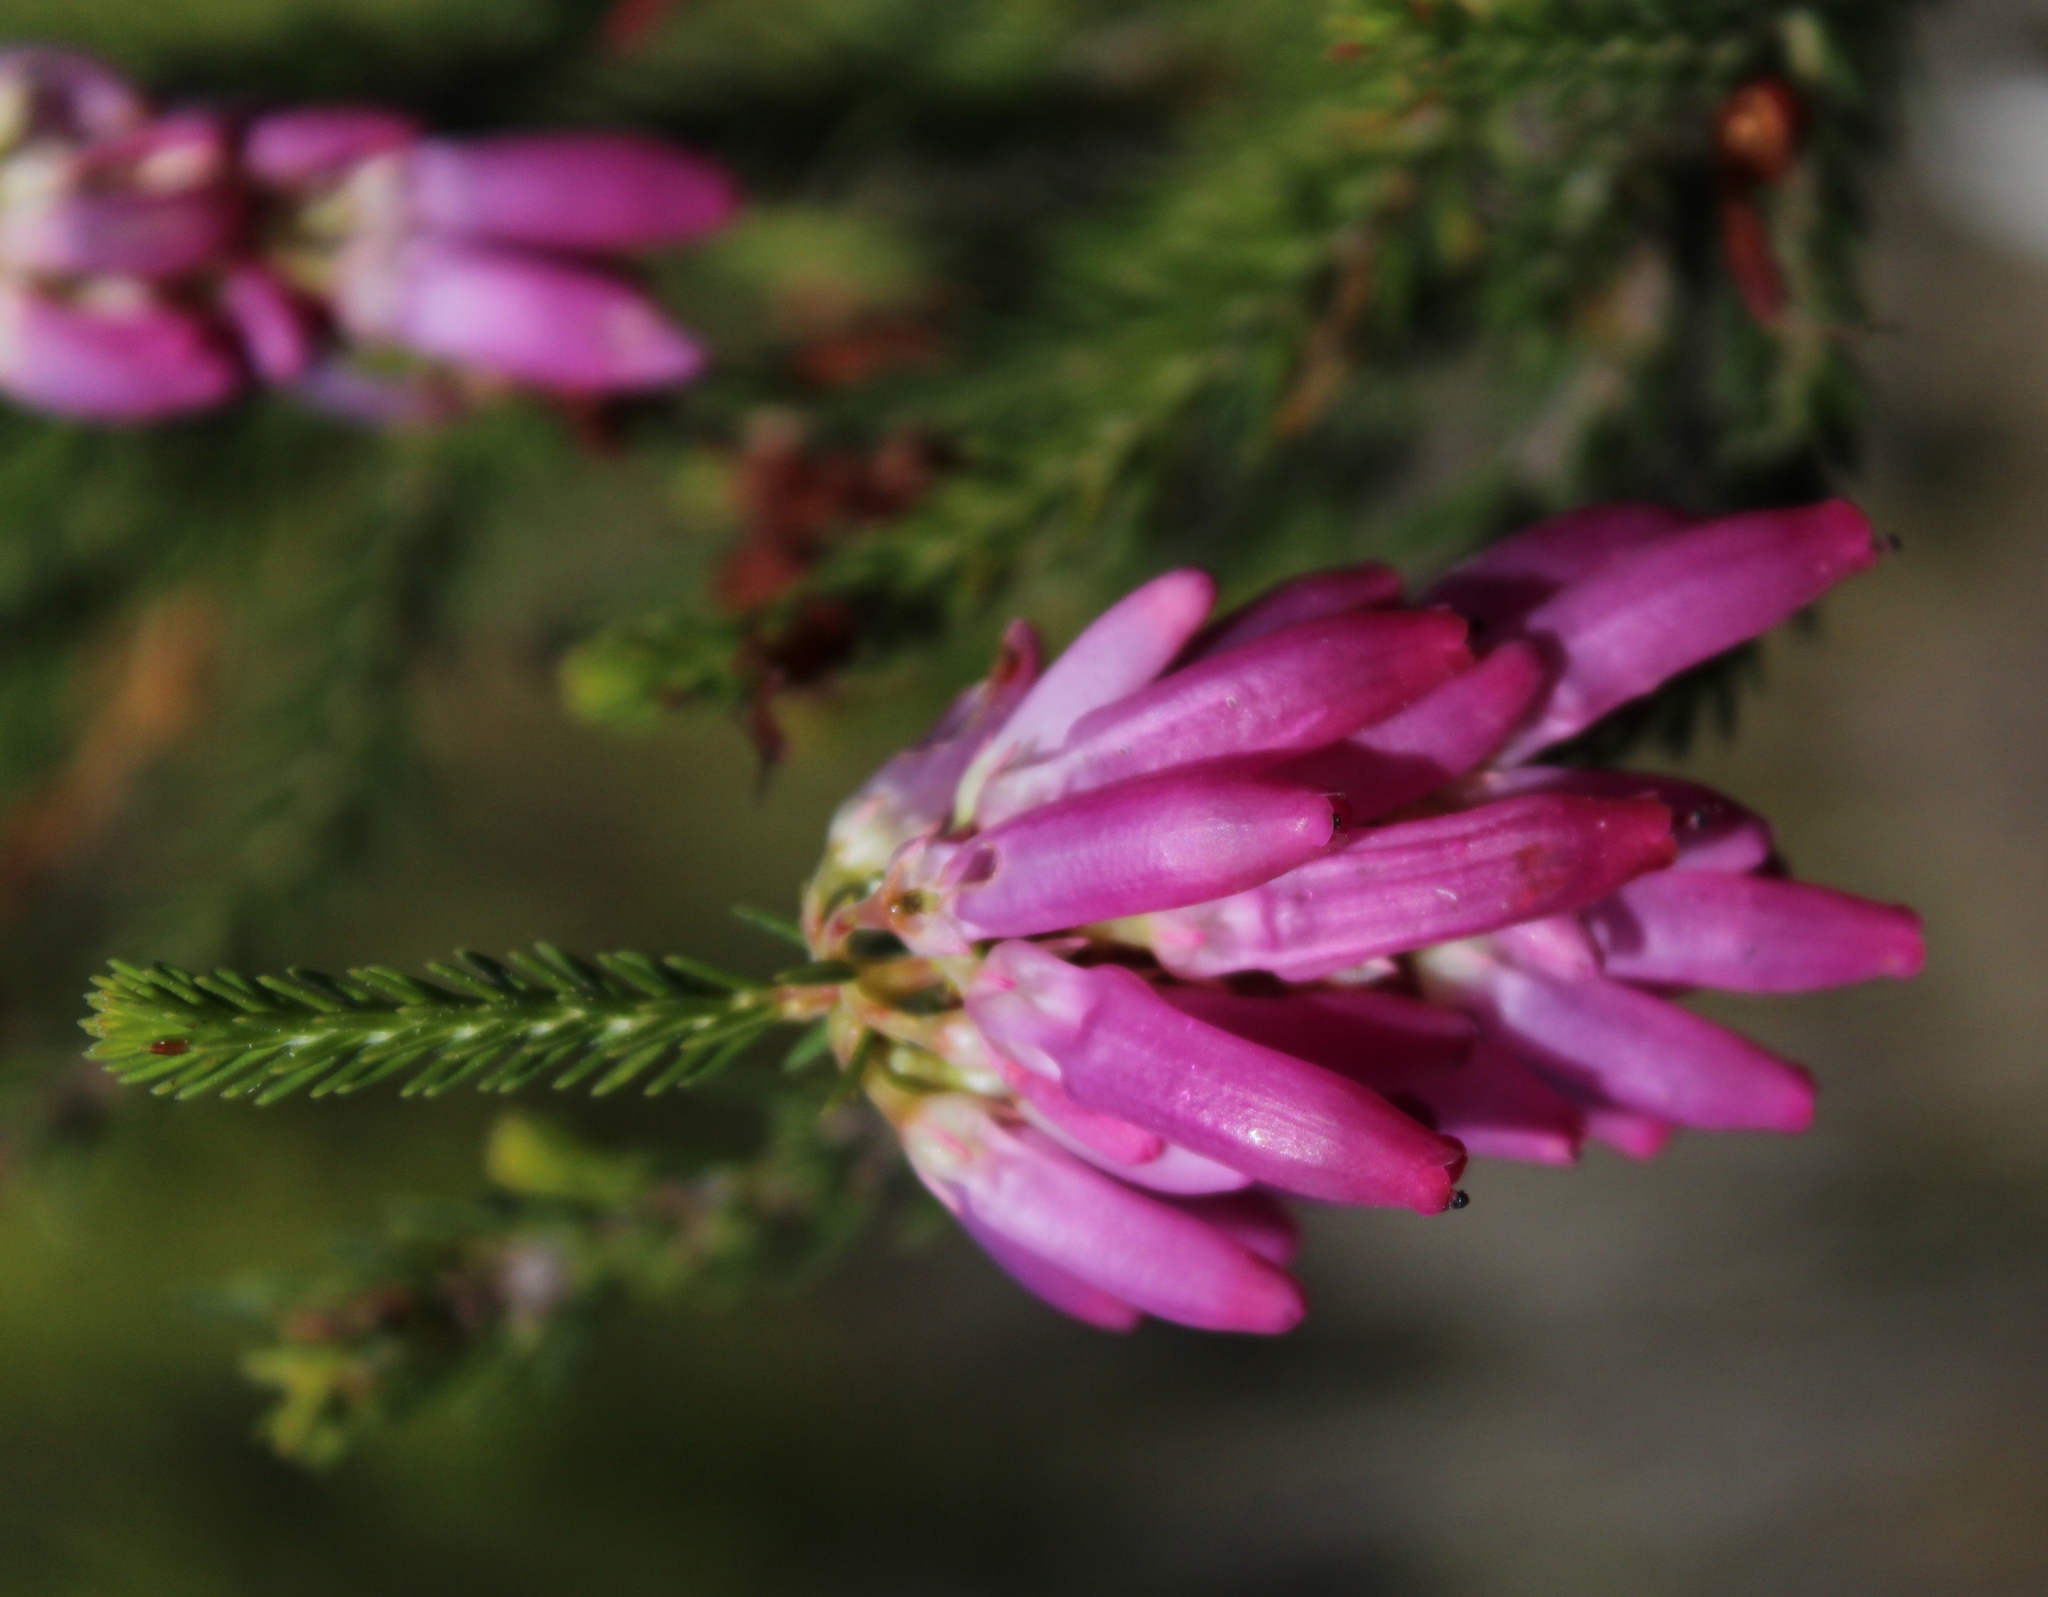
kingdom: Plantae
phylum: Tracheophyta
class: Magnoliopsida
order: Ericales
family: Ericaceae
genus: Erica
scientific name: Erica mammosa
